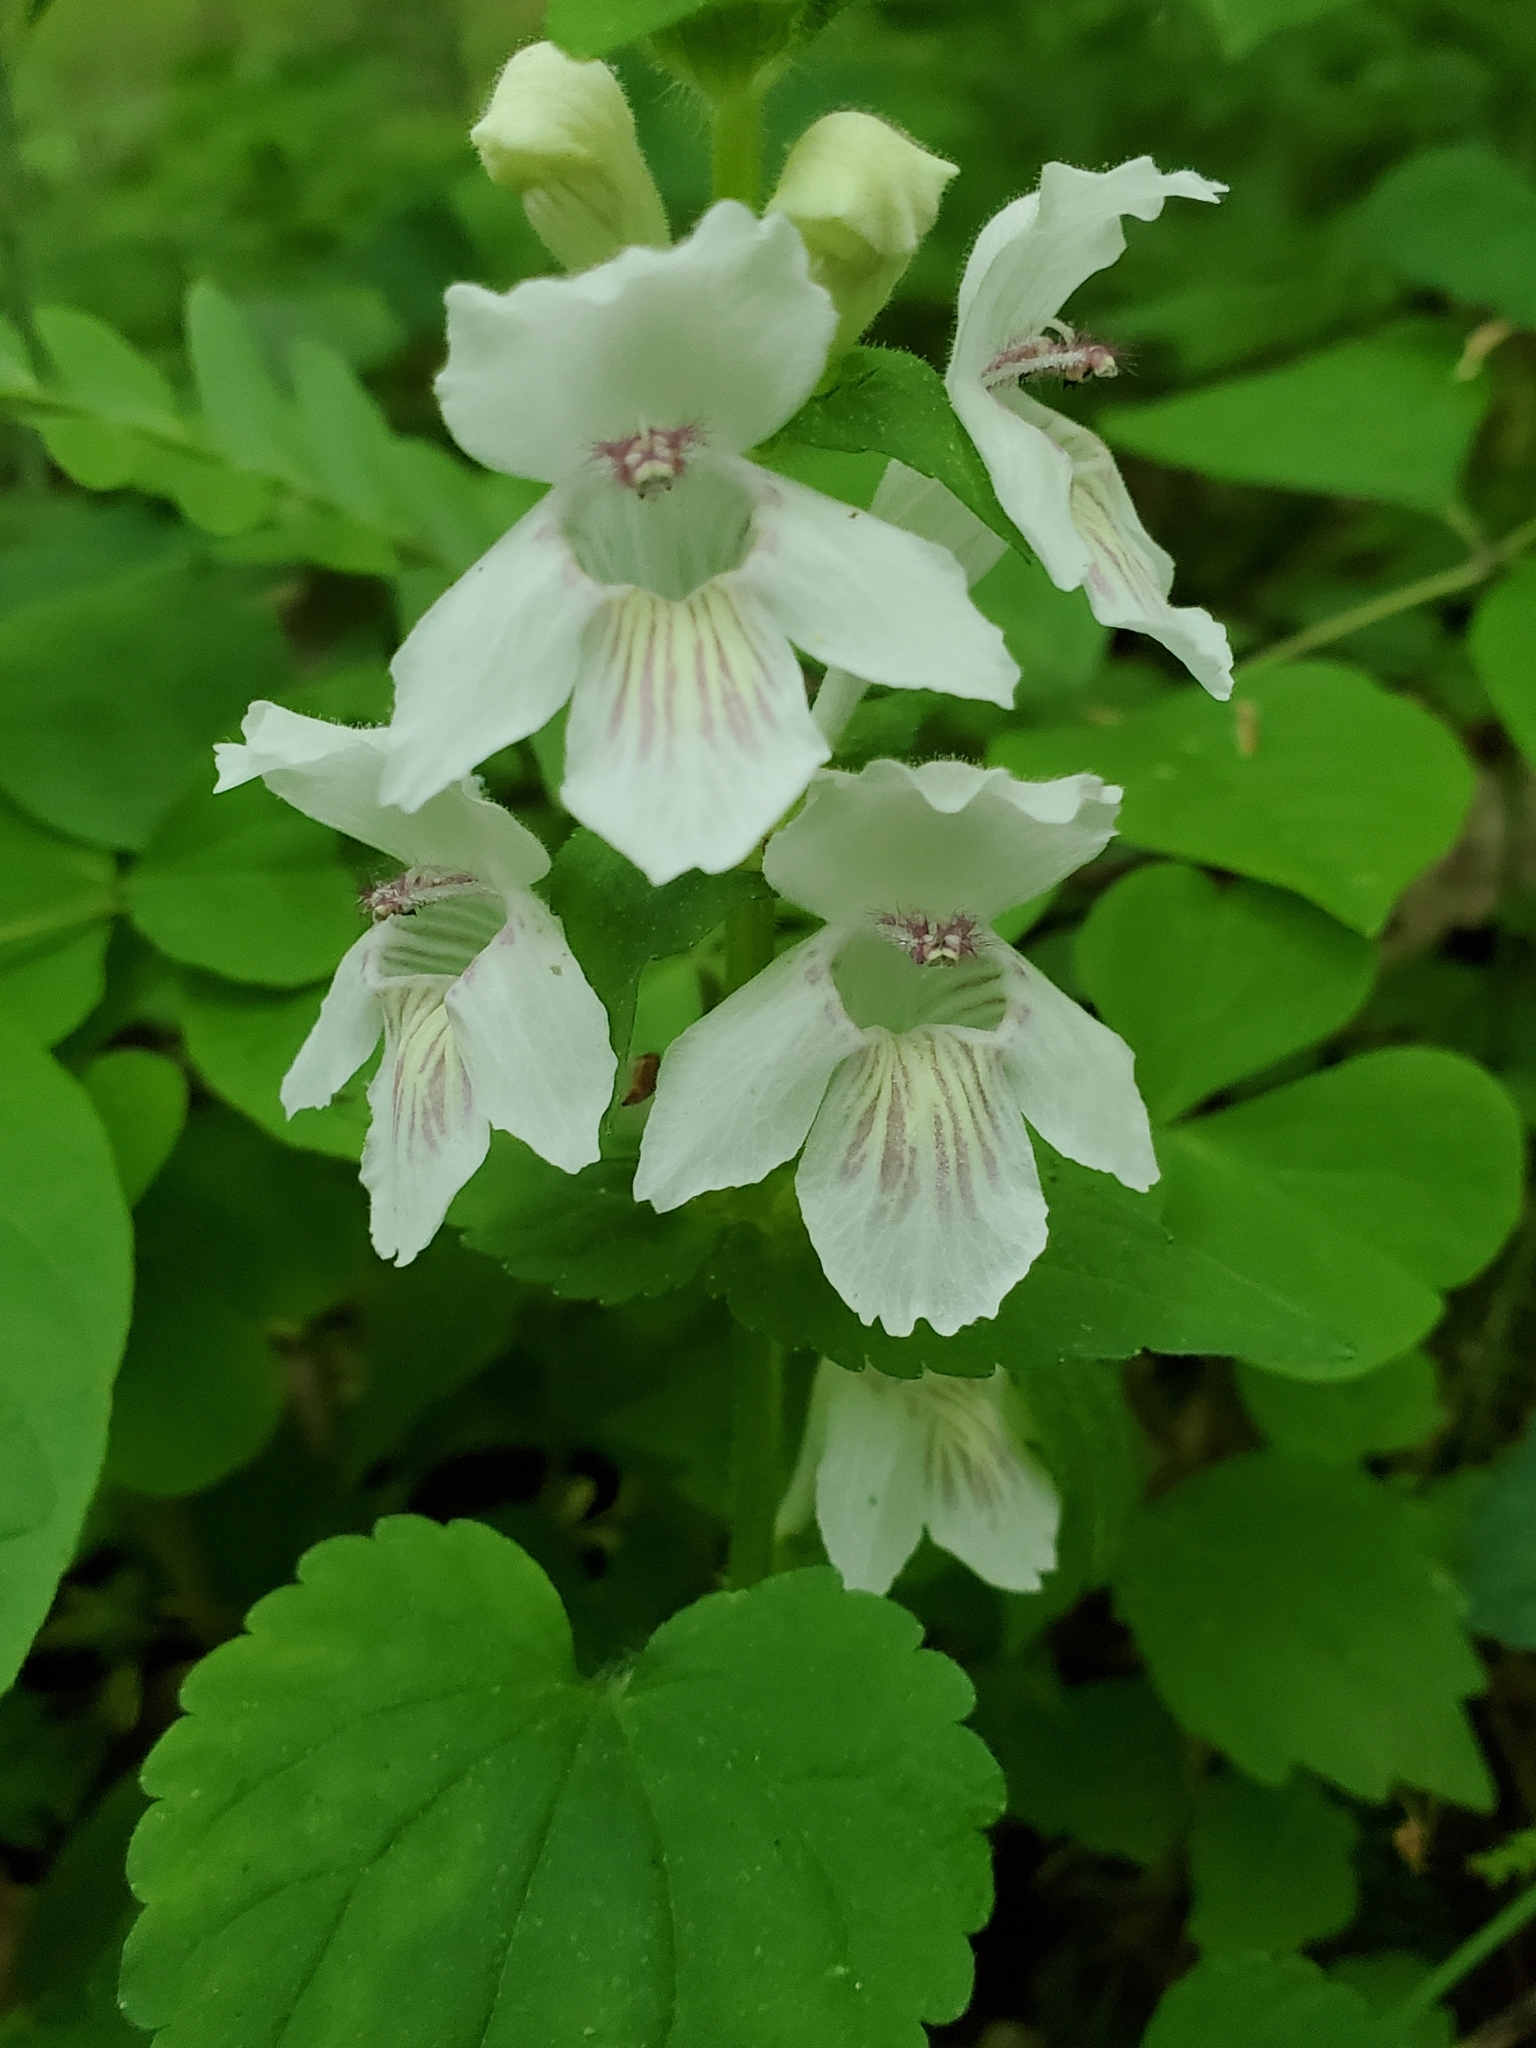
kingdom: Plantae
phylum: Tracheophyta
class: Magnoliopsida
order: Lamiales
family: Lamiaceae
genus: Synandra
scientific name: Synandra hispidula
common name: Synandra
